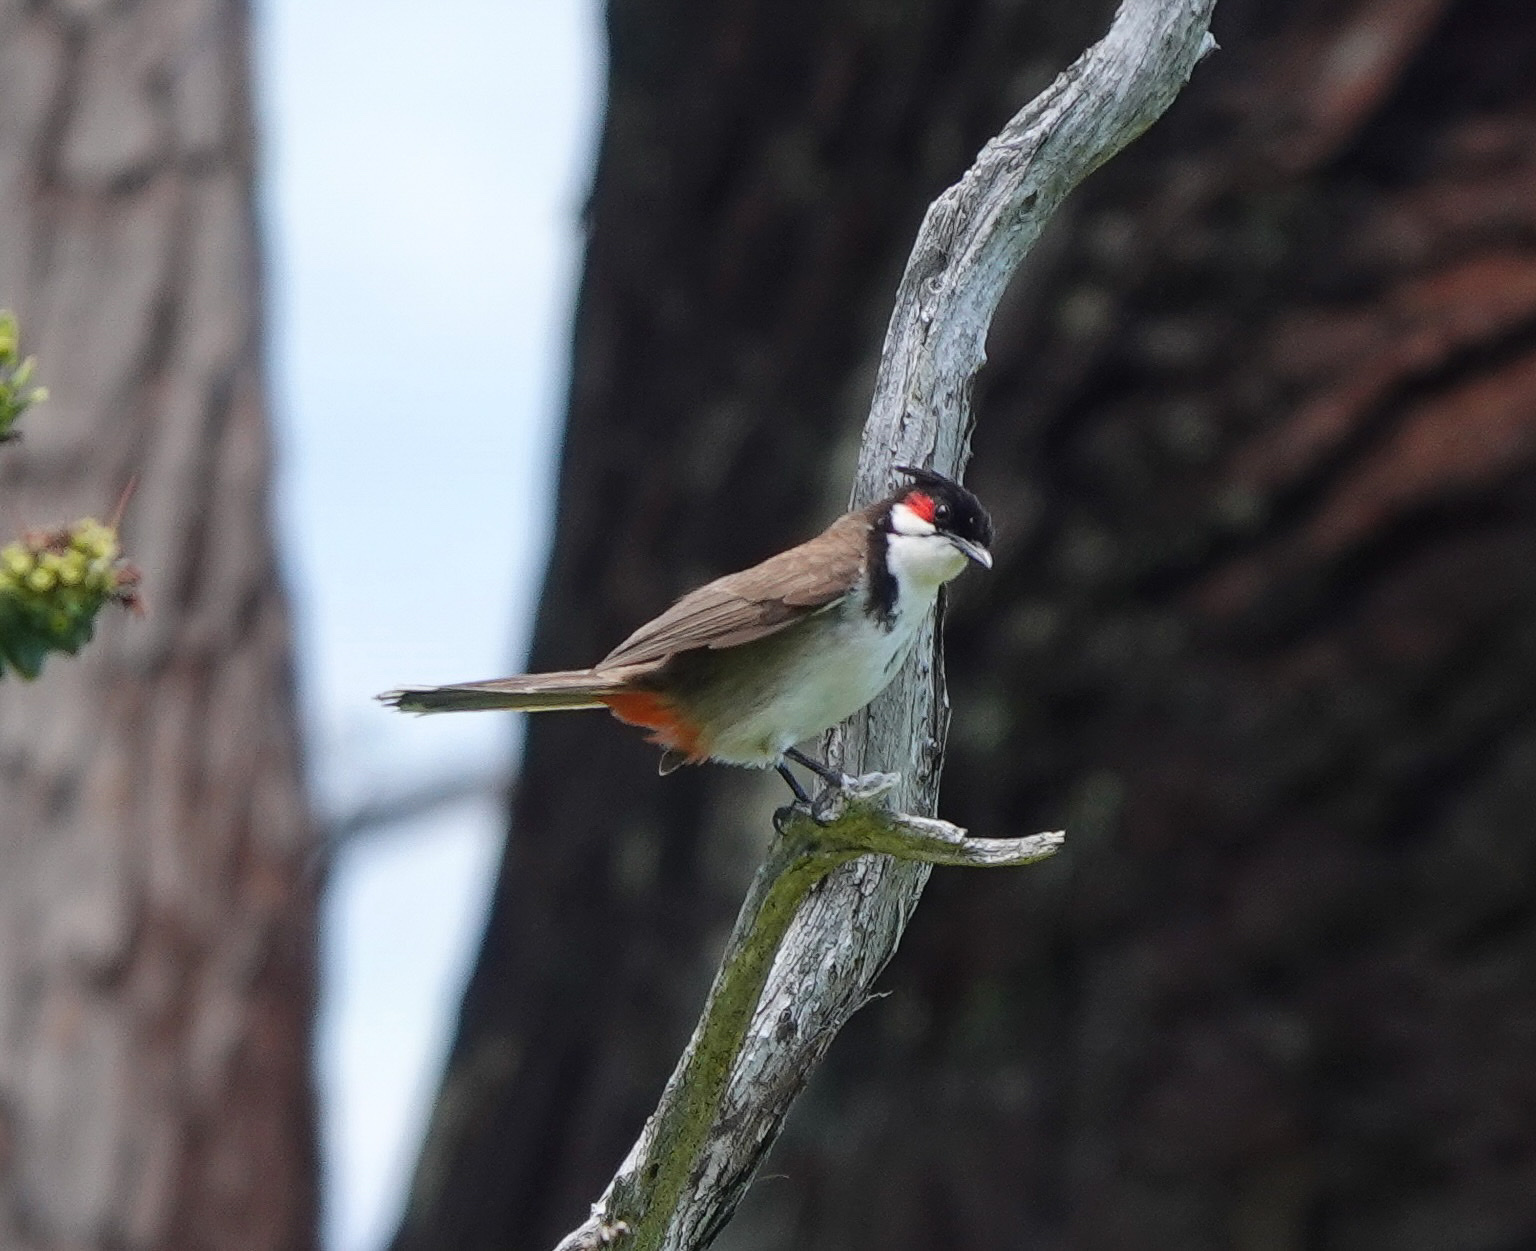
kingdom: Animalia
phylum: Chordata
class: Aves
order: Passeriformes
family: Pycnonotidae
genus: Pycnonotus
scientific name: Pycnonotus jocosus
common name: Red-whiskered bulbul
